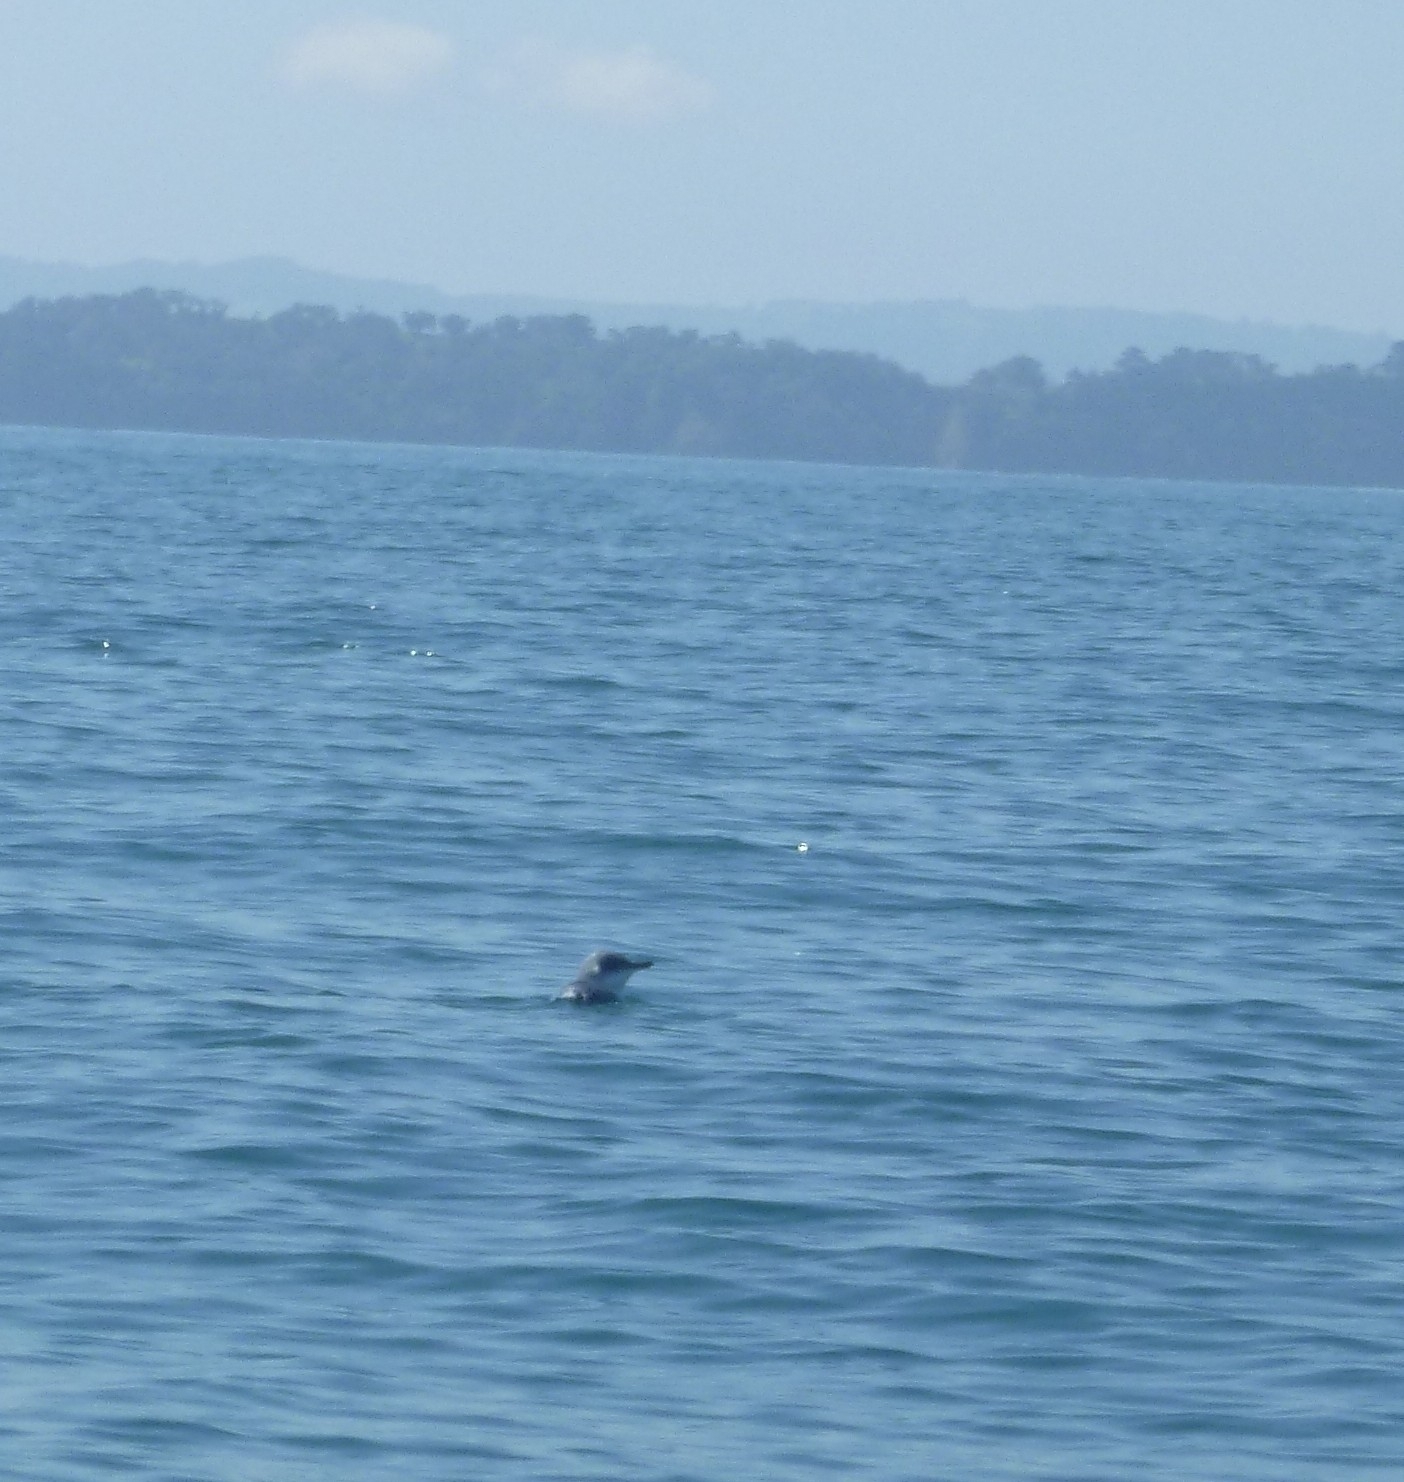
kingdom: Animalia
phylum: Chordata
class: Aves
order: Sphenisciformes
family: Spheniscidae
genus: Eudyptula
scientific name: Eudyptula minor
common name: Little penguin
